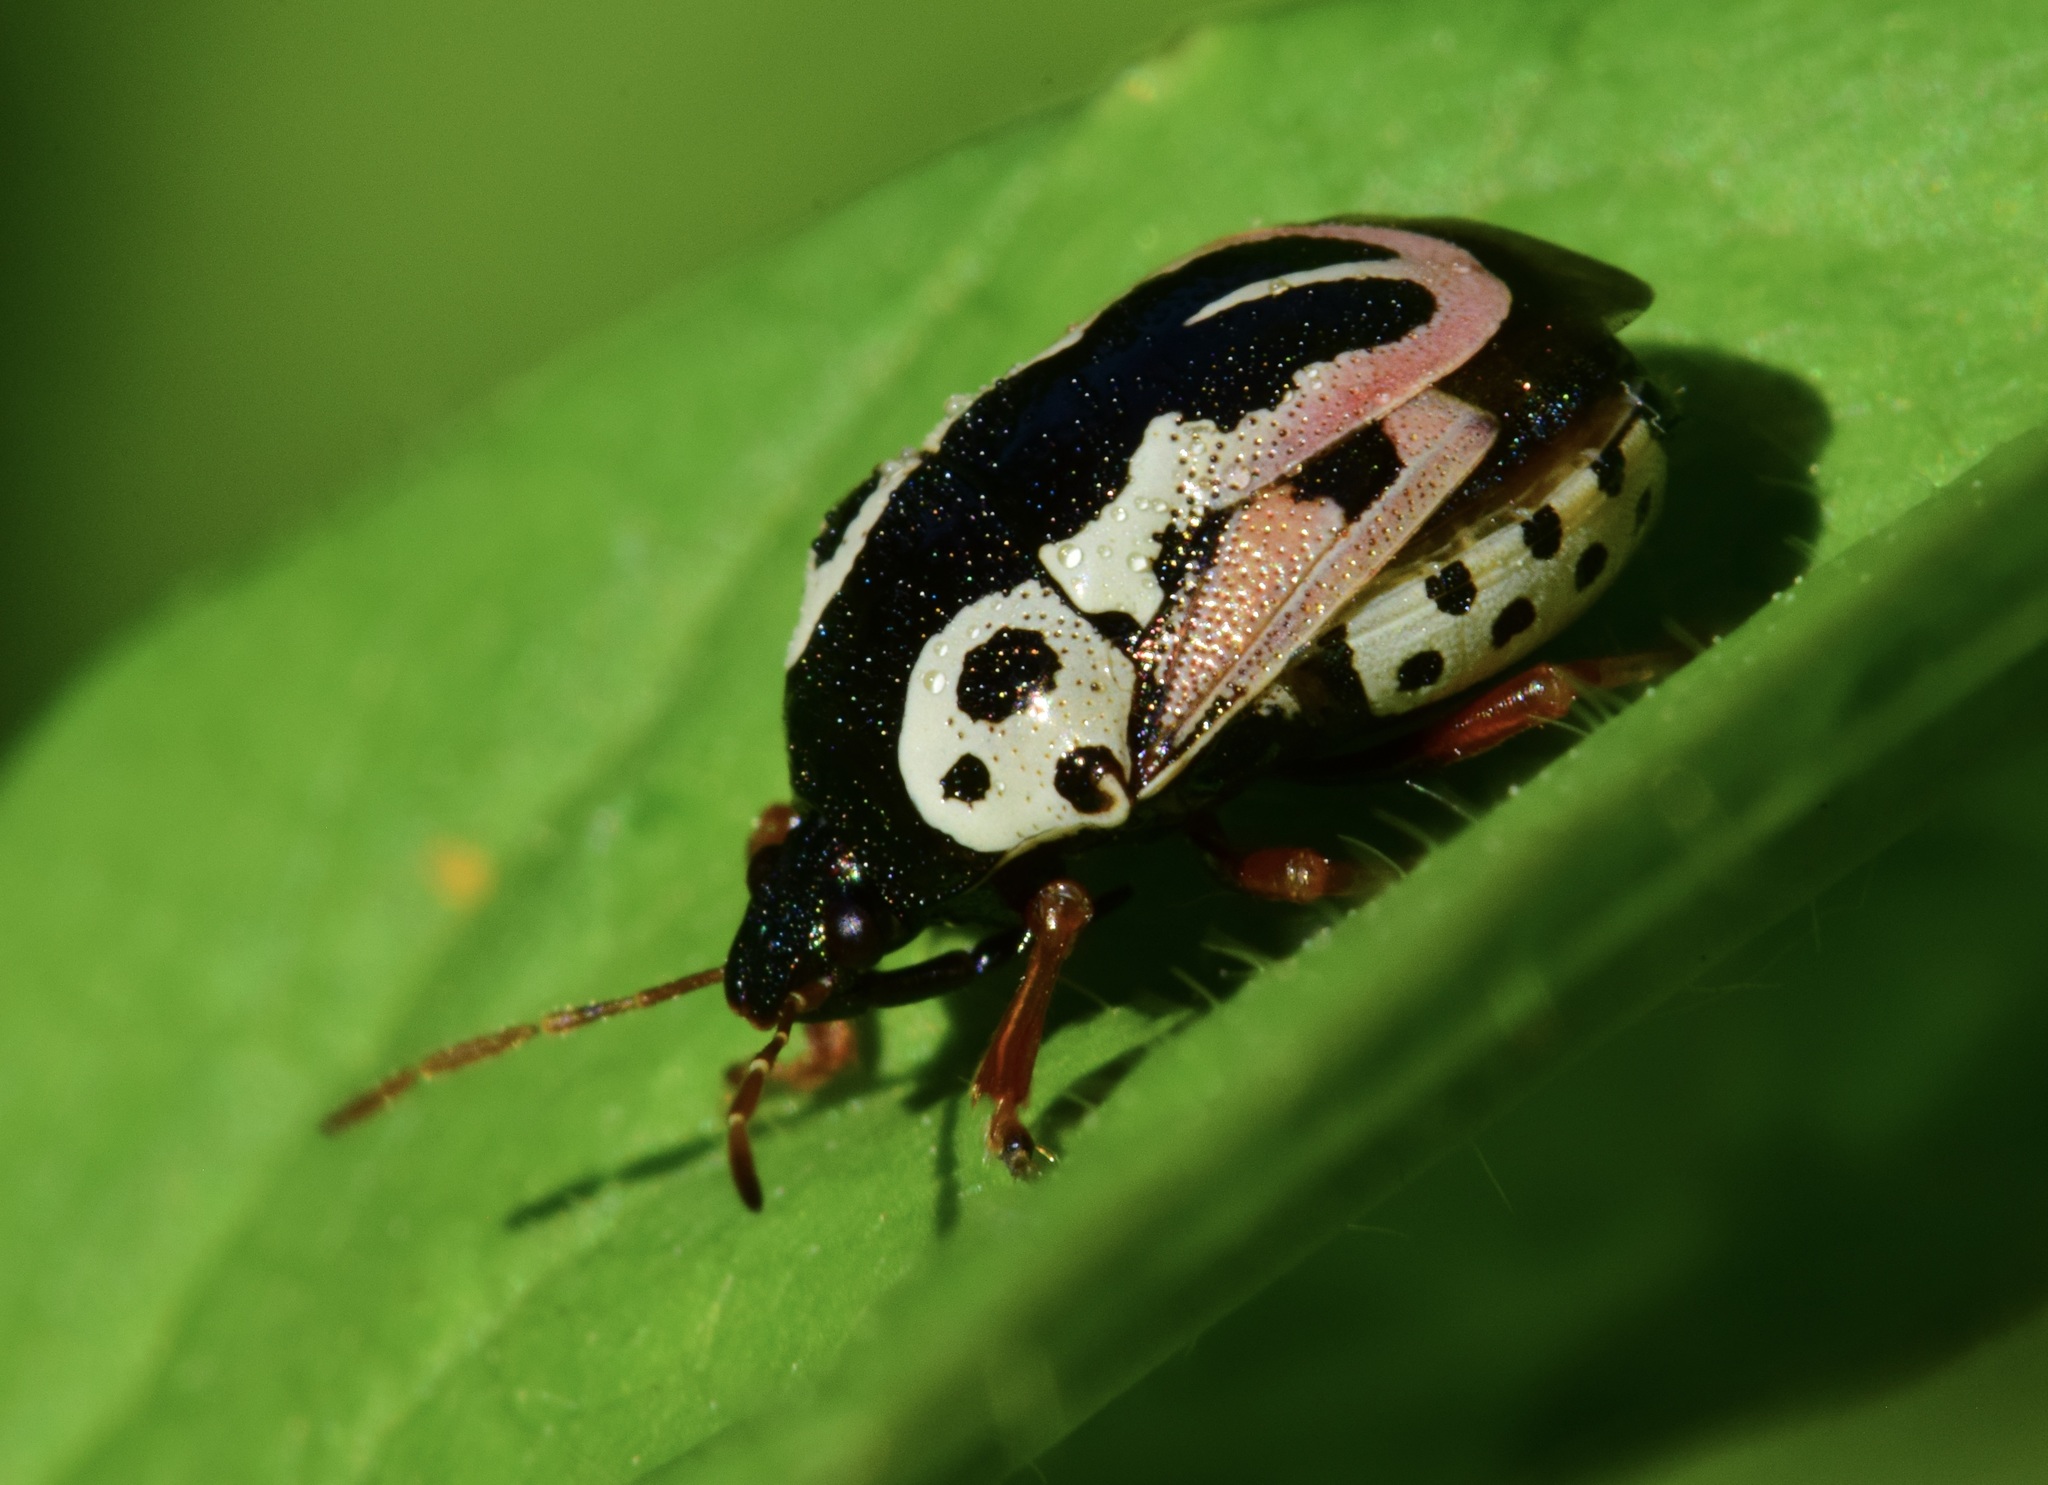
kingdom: Animalia
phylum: Arthropoda
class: Insecta
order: Hemiptera
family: Pentatomidae
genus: Stiretrus
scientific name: Stiretrus anchorago
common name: Anchor stink bug
